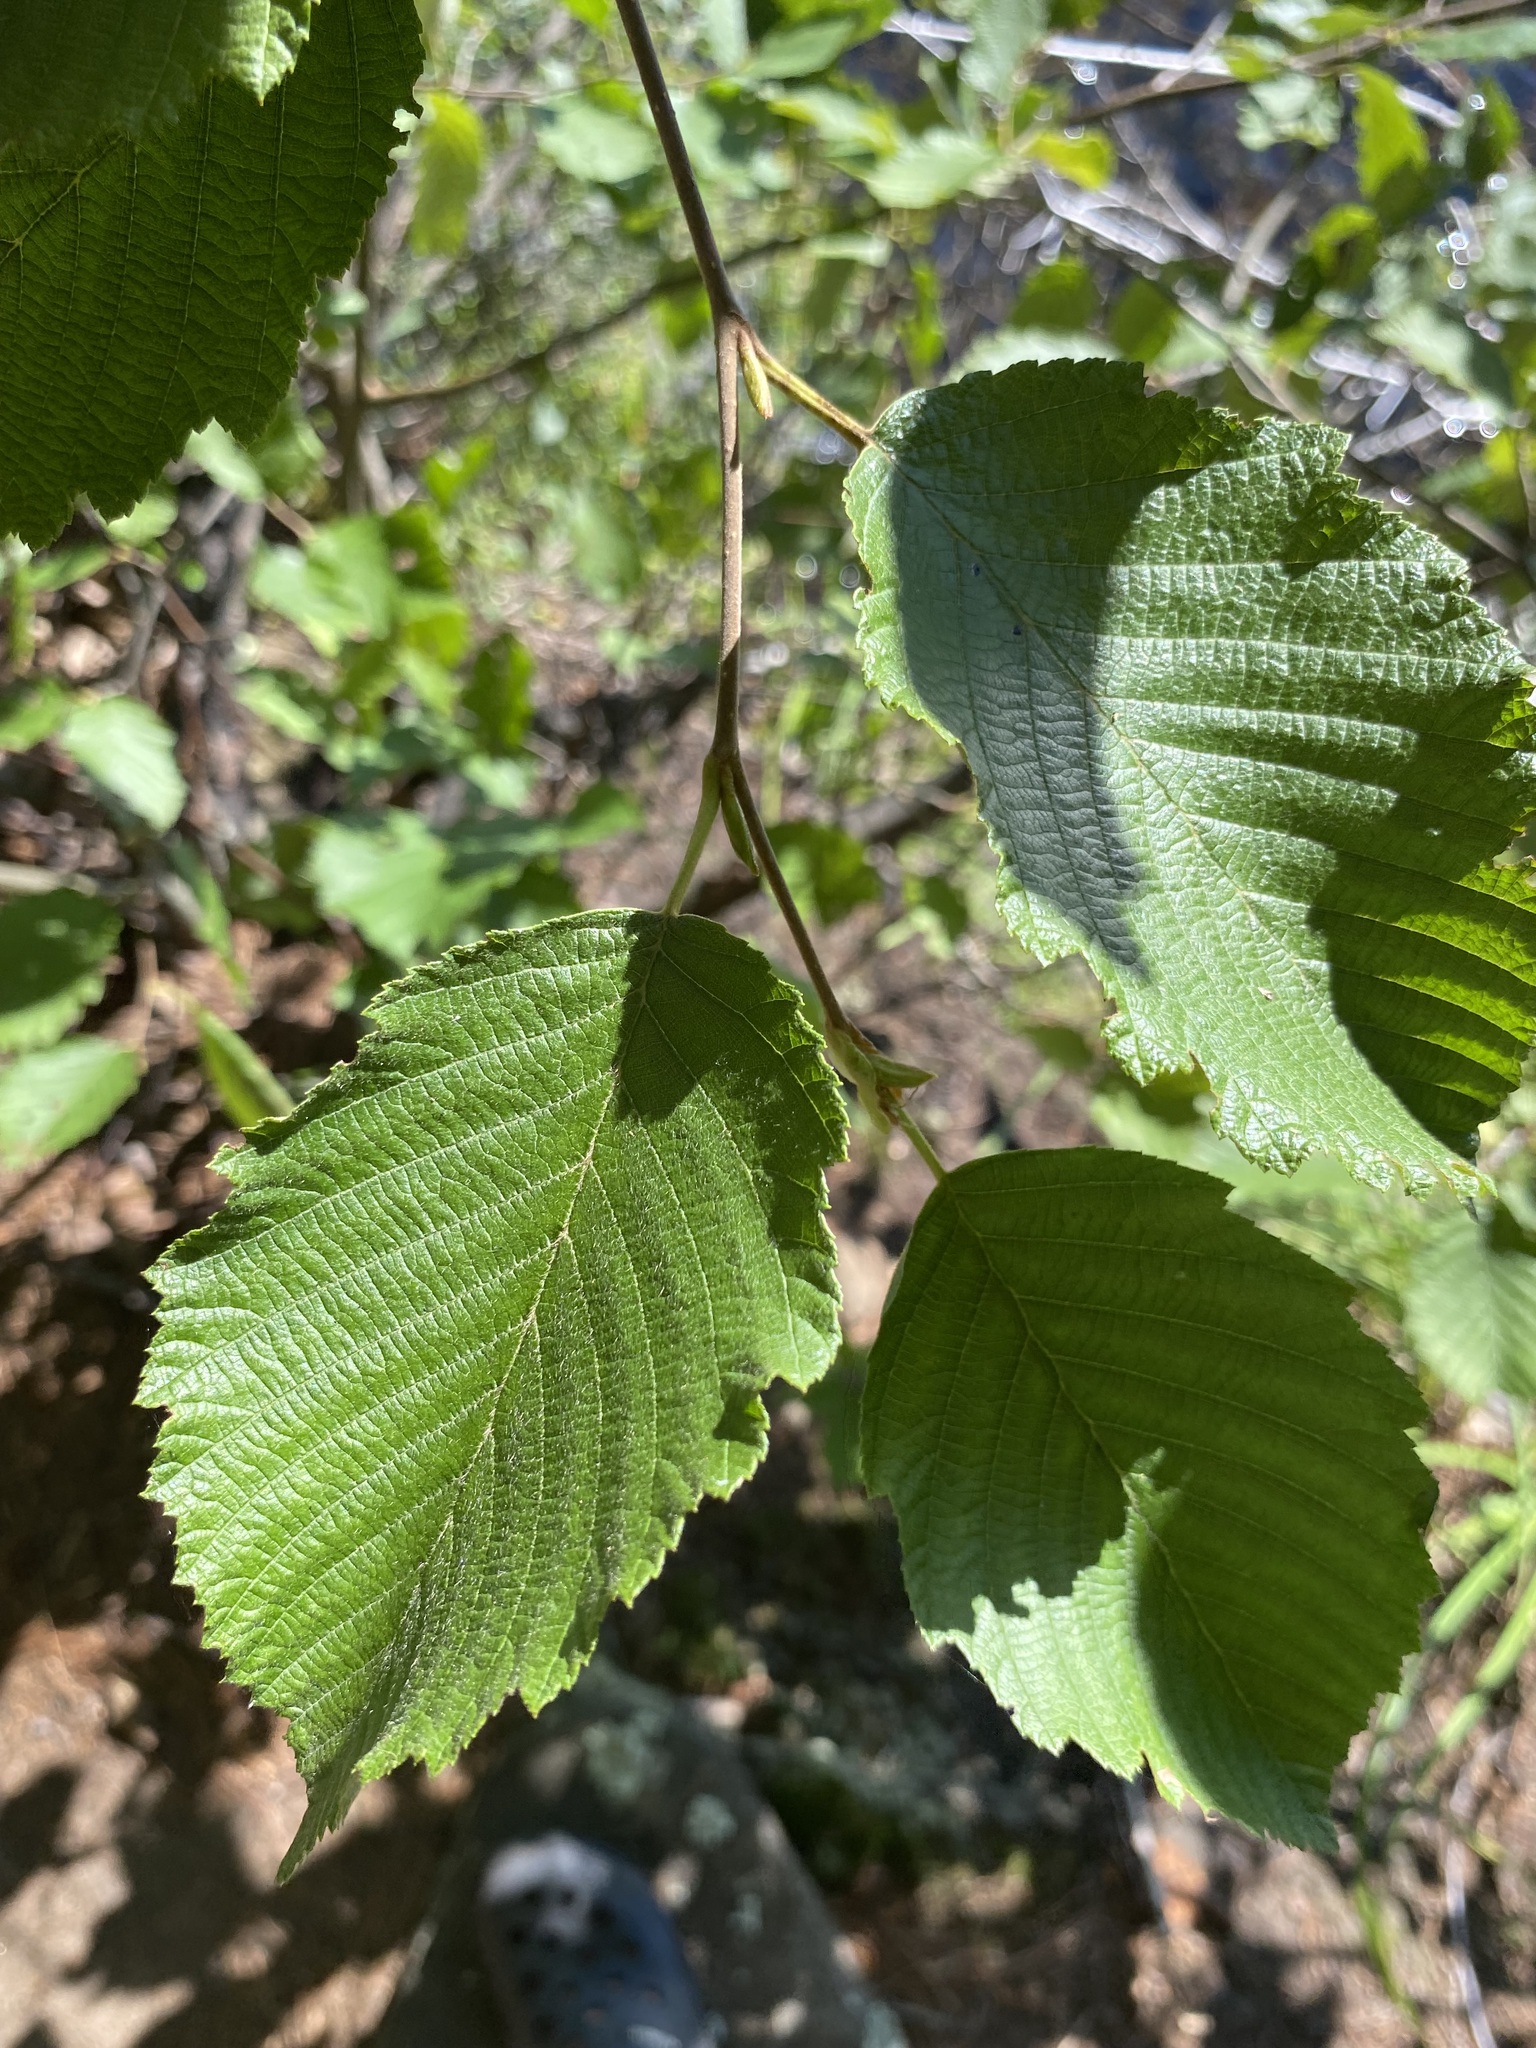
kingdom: Plantae
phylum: Tracheophyta
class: Magnoliopsida
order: Fagales
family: Betulaceae
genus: Alnus
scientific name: Alnus incana
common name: Grey alder
